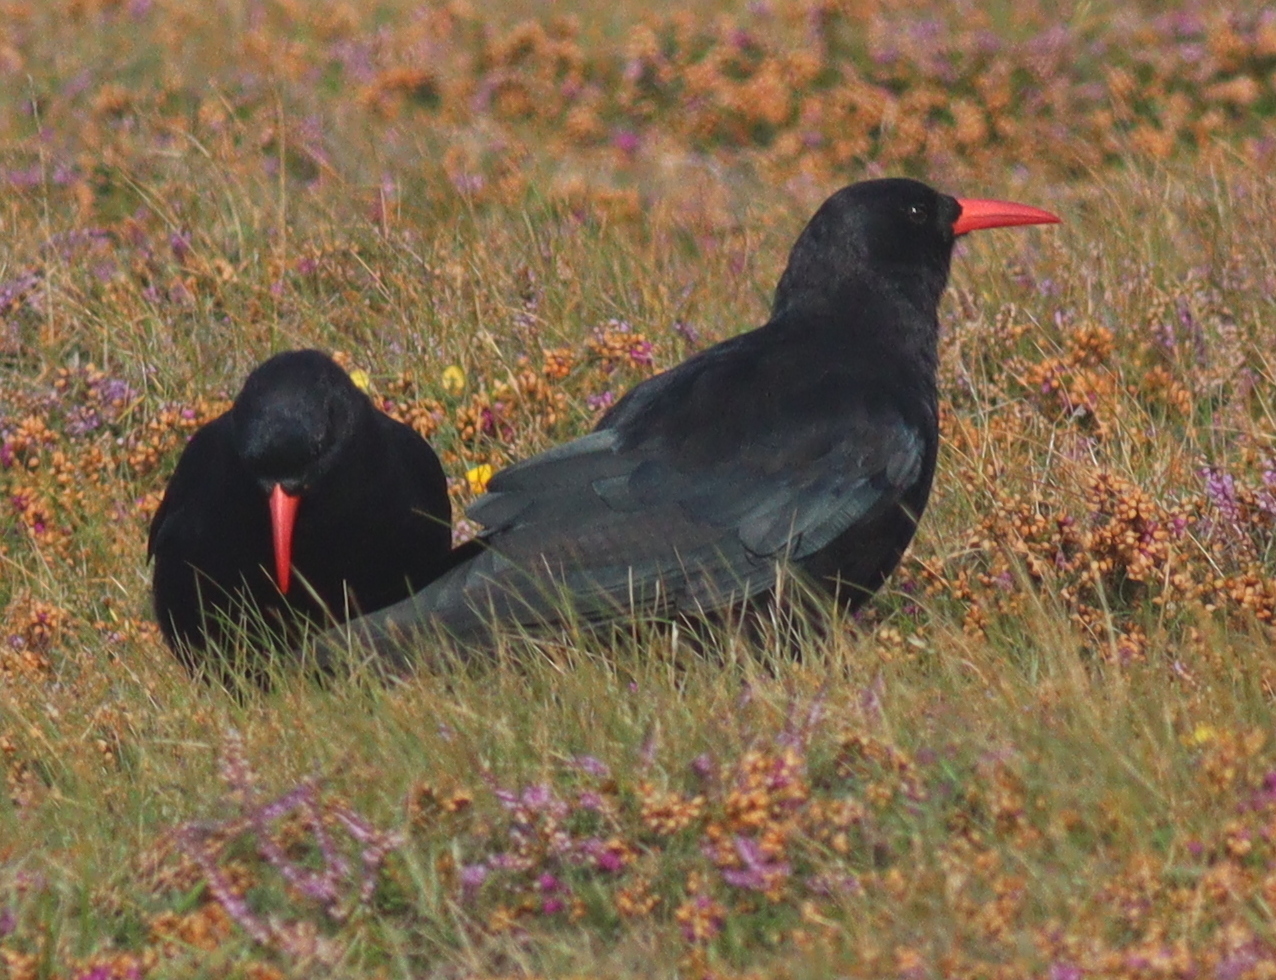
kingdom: Animalia
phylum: Chordata
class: Aves
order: Passeriformes
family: Corvidae
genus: Pyrrhocorax
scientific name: Pyrrhocorax pyrrhocorax
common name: Red-billed chough
